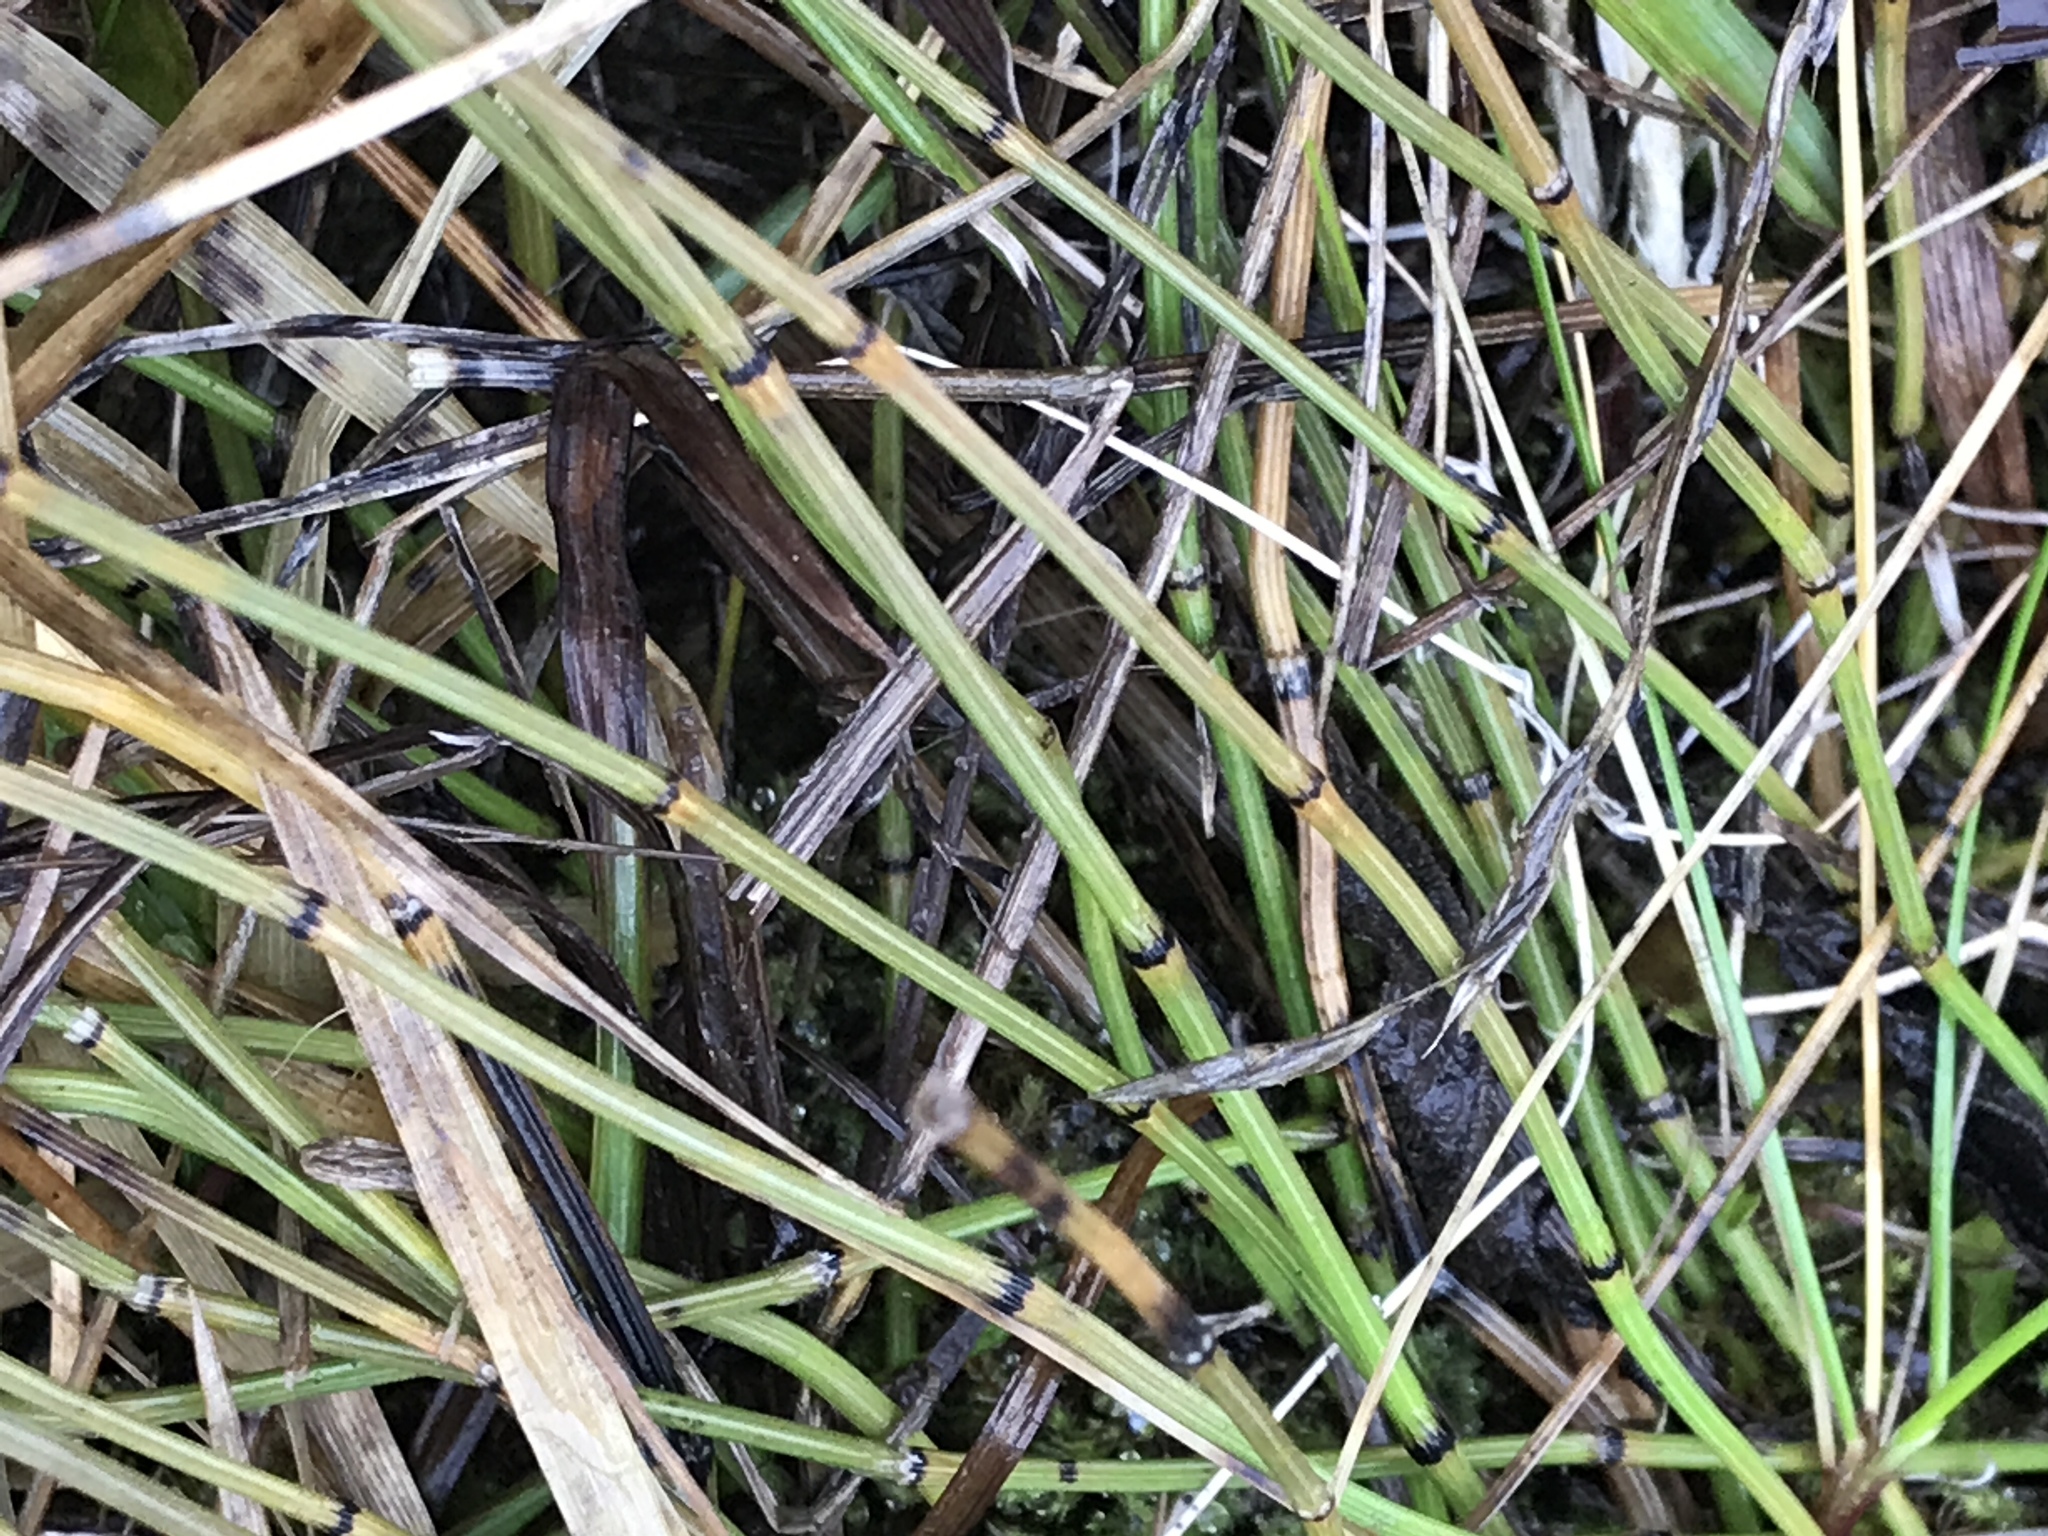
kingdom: Plantae
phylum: Tracheophyta
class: Polypodiopsida
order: Equisetales
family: Equisetaceae
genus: Equisetum
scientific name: Equisetum variegatum
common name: Variegated horsetail
